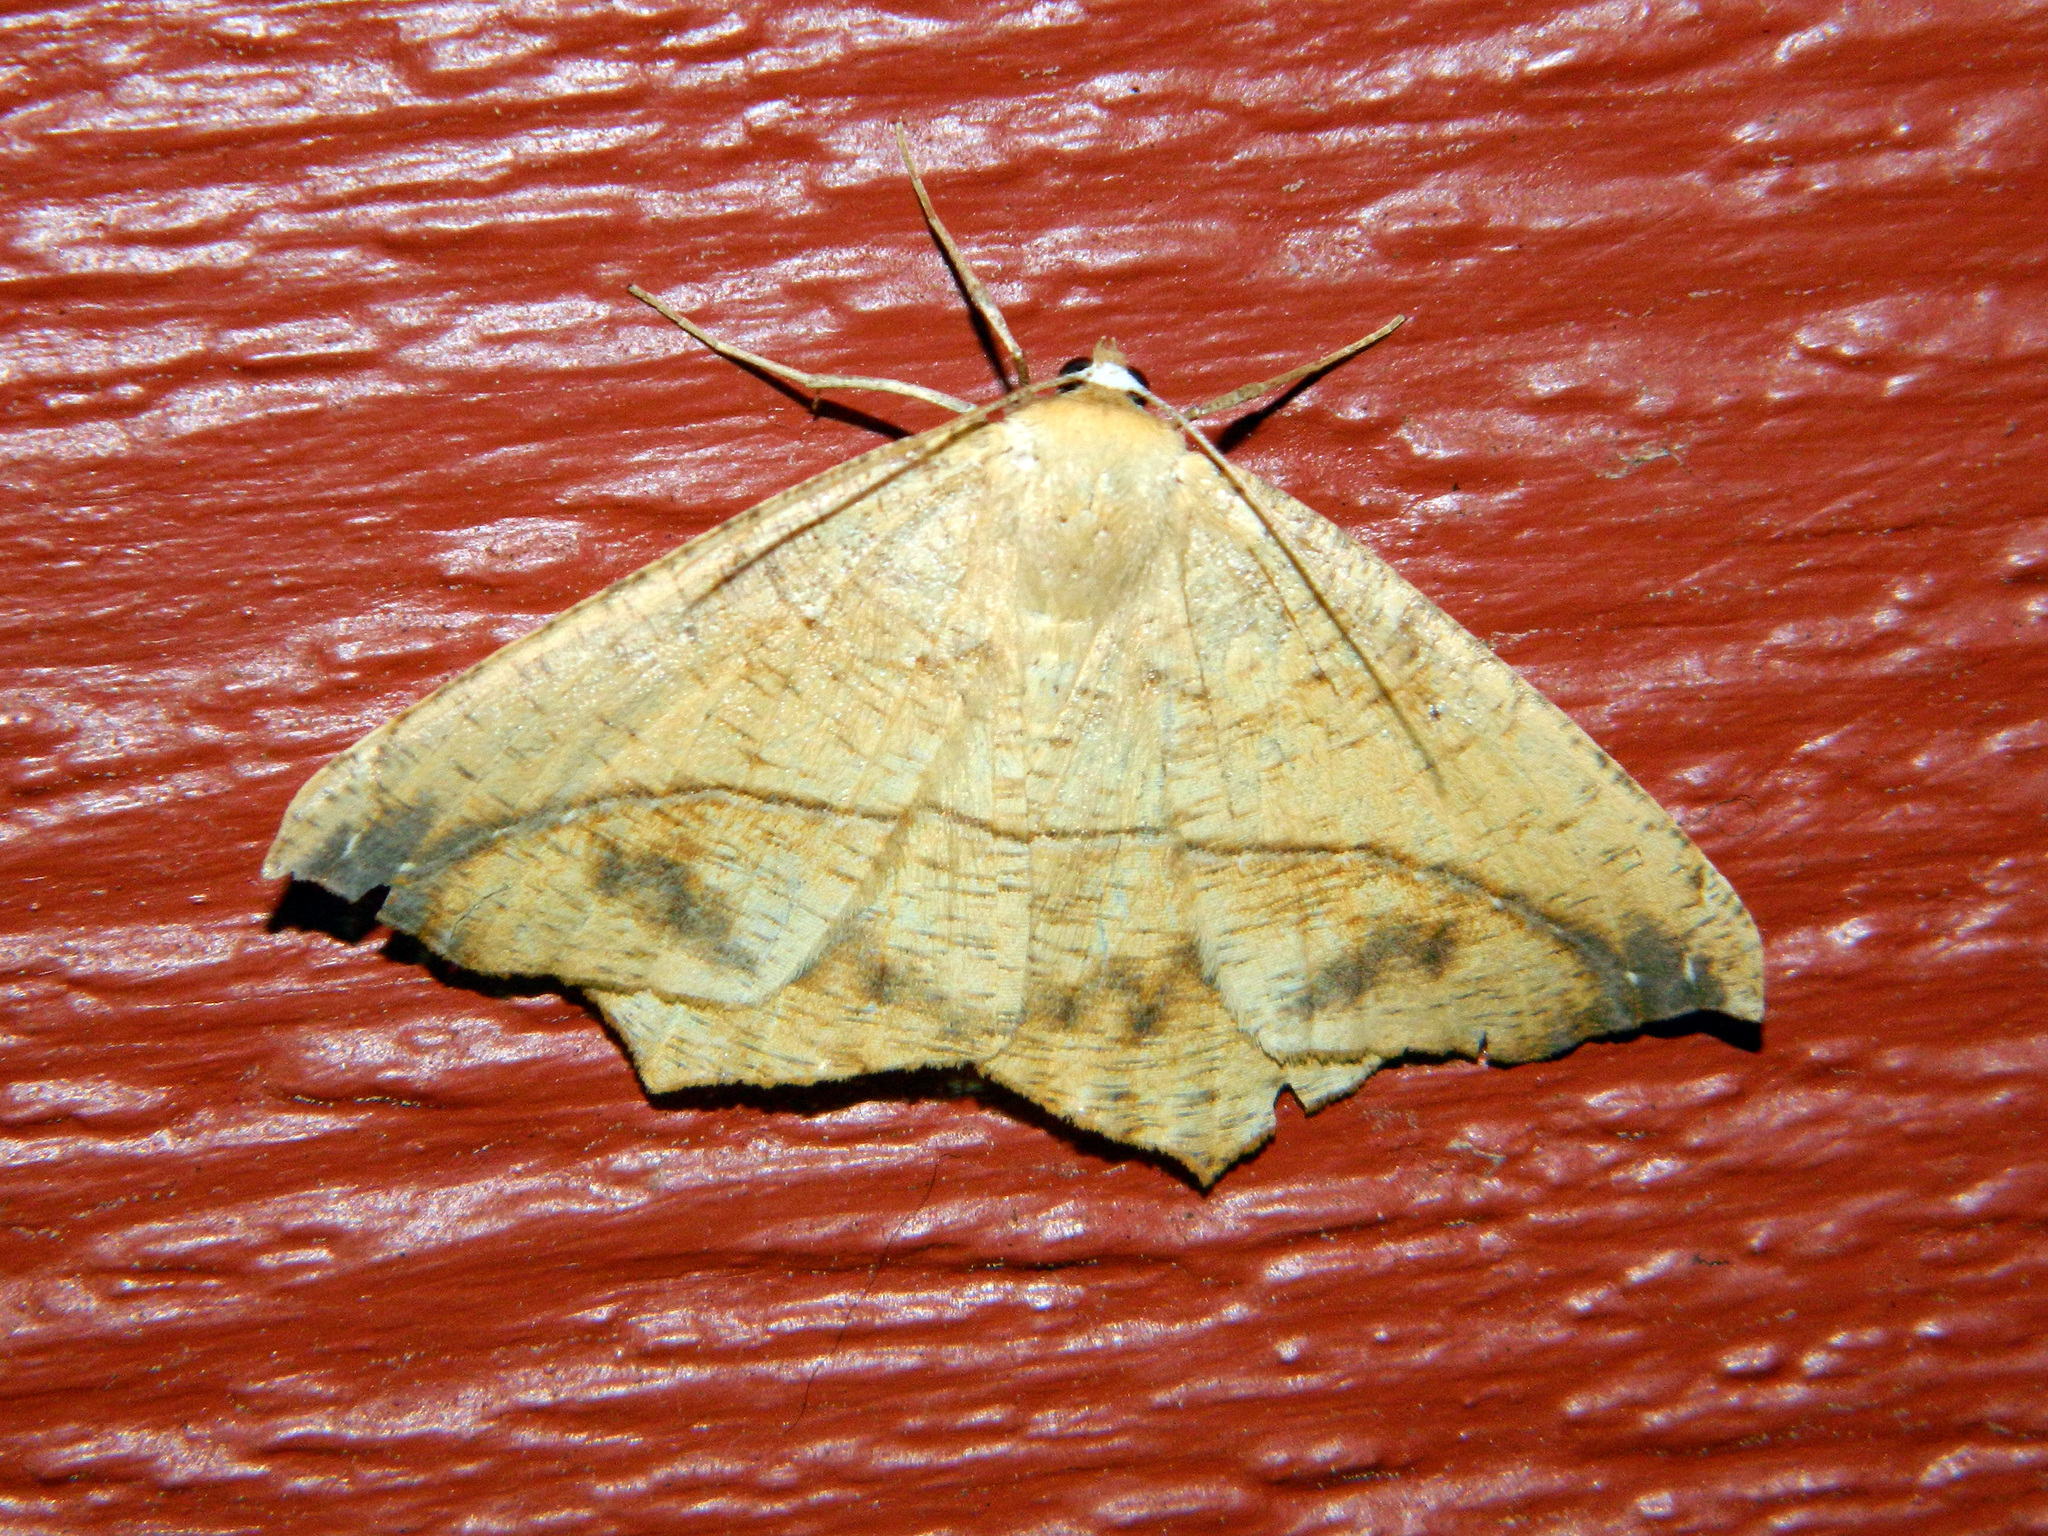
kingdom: Animalia
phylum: Arthropoda
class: Insecta
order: Lepidoptera
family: Geometridae
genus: Prochoerodes
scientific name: Prochoerodes lineola
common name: Large maple spanworm
